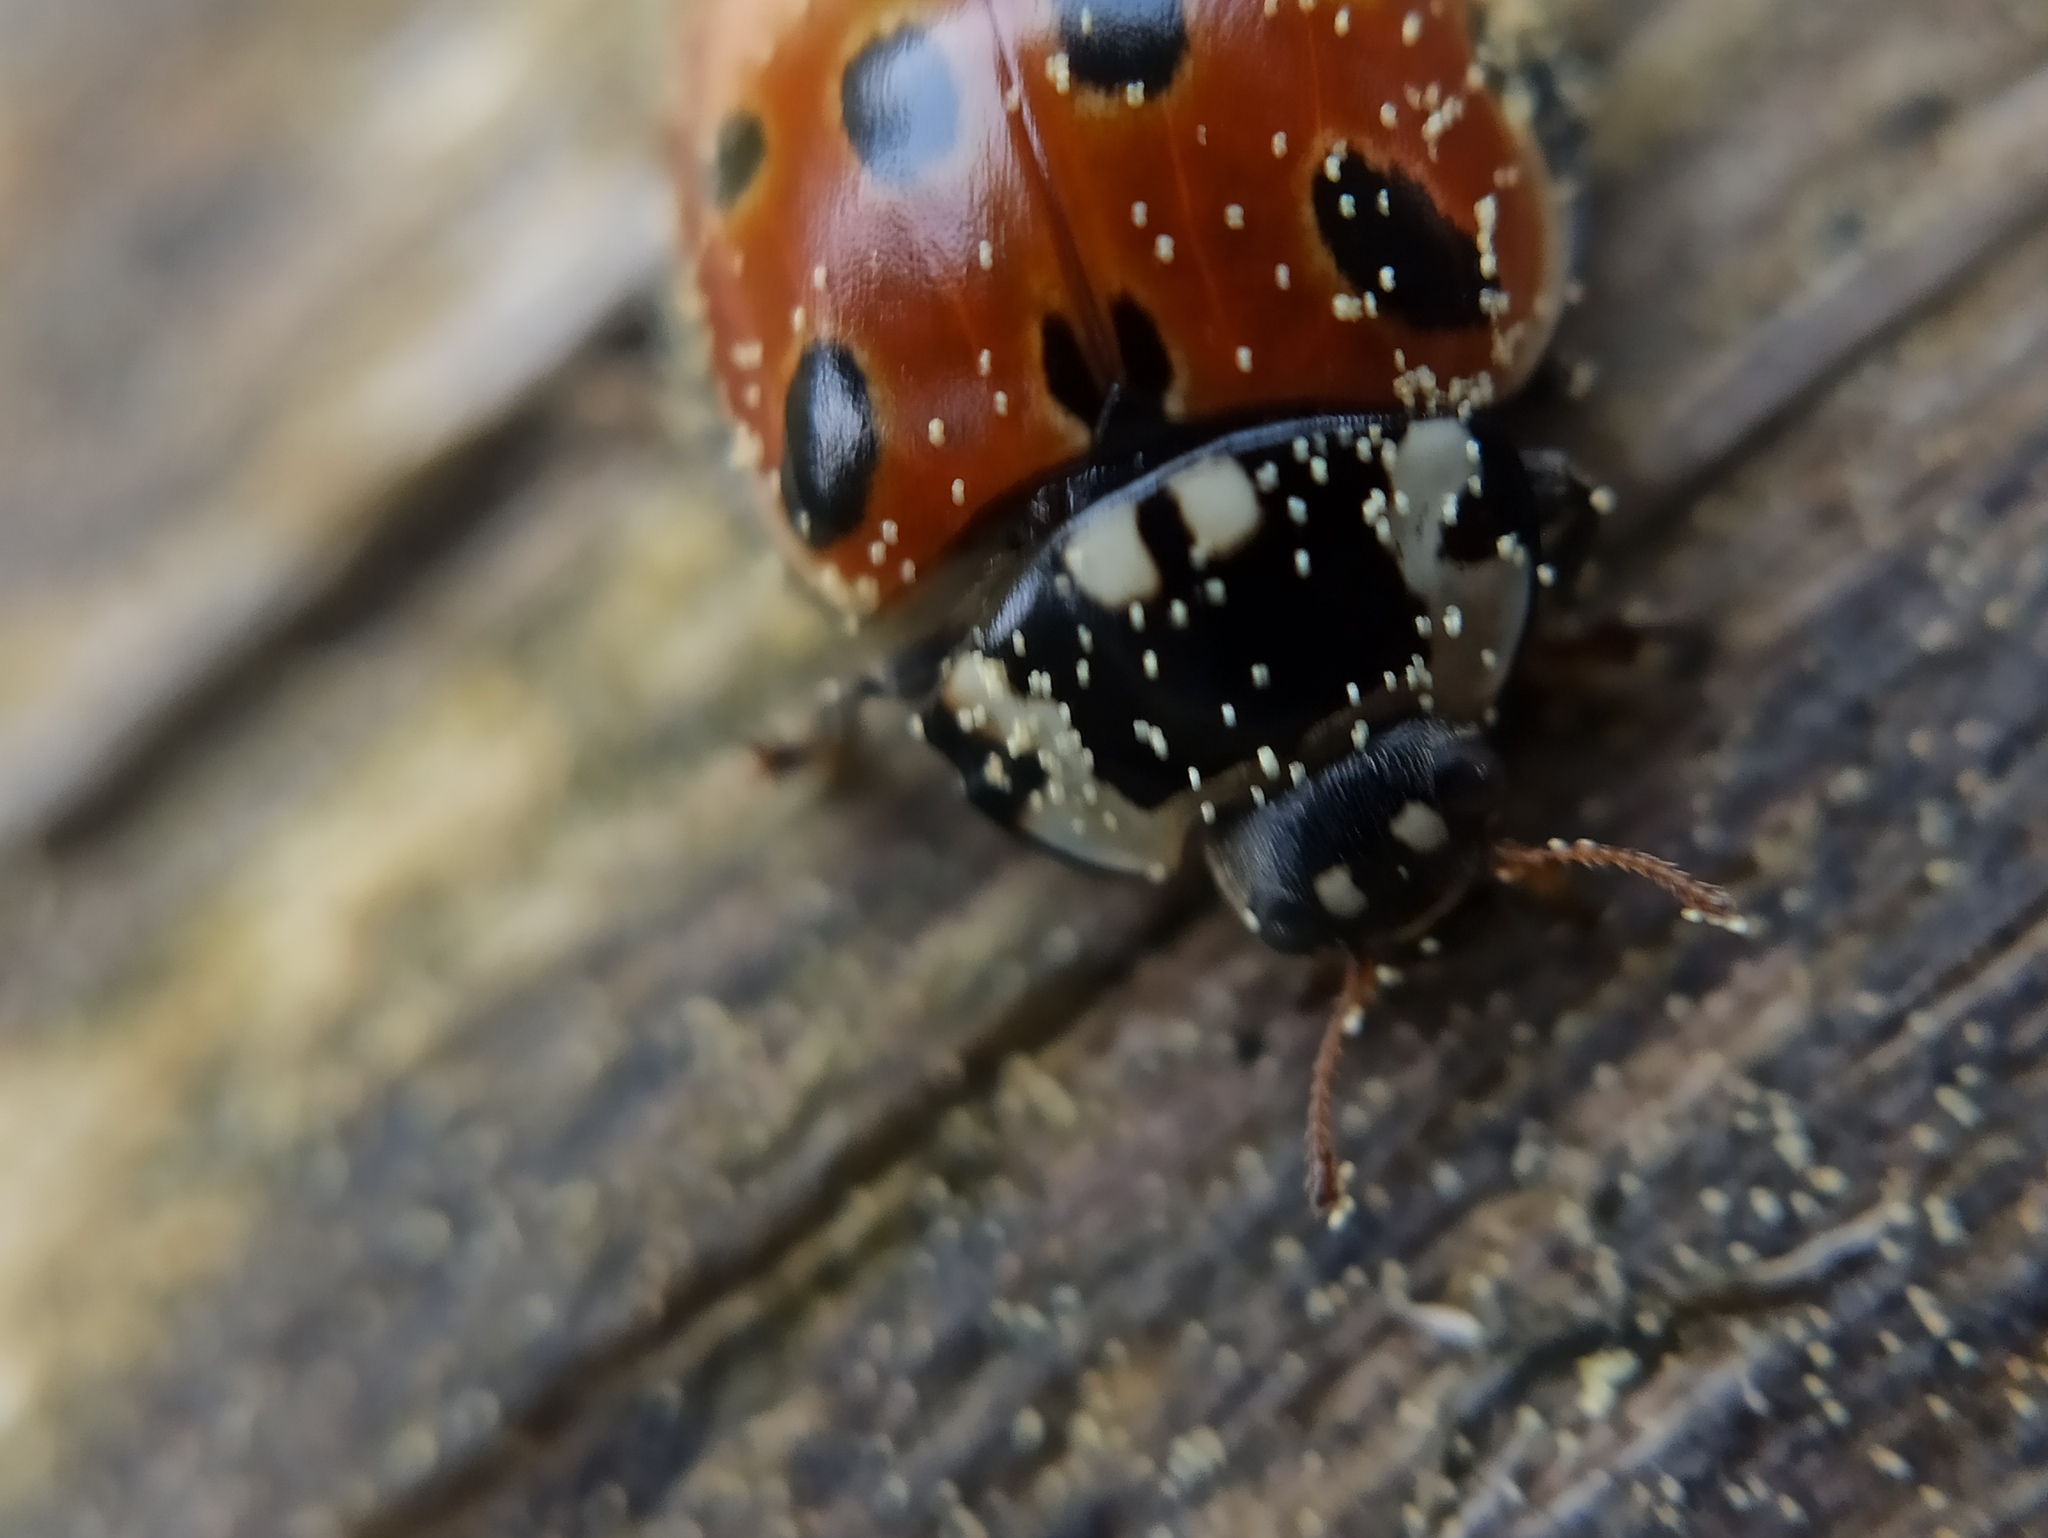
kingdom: Animalia
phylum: Arthropoda
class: Insecta
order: Coleoptera
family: Coccinellidae
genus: Anatis
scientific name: Anatis ocellata
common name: Eyed ladybird
